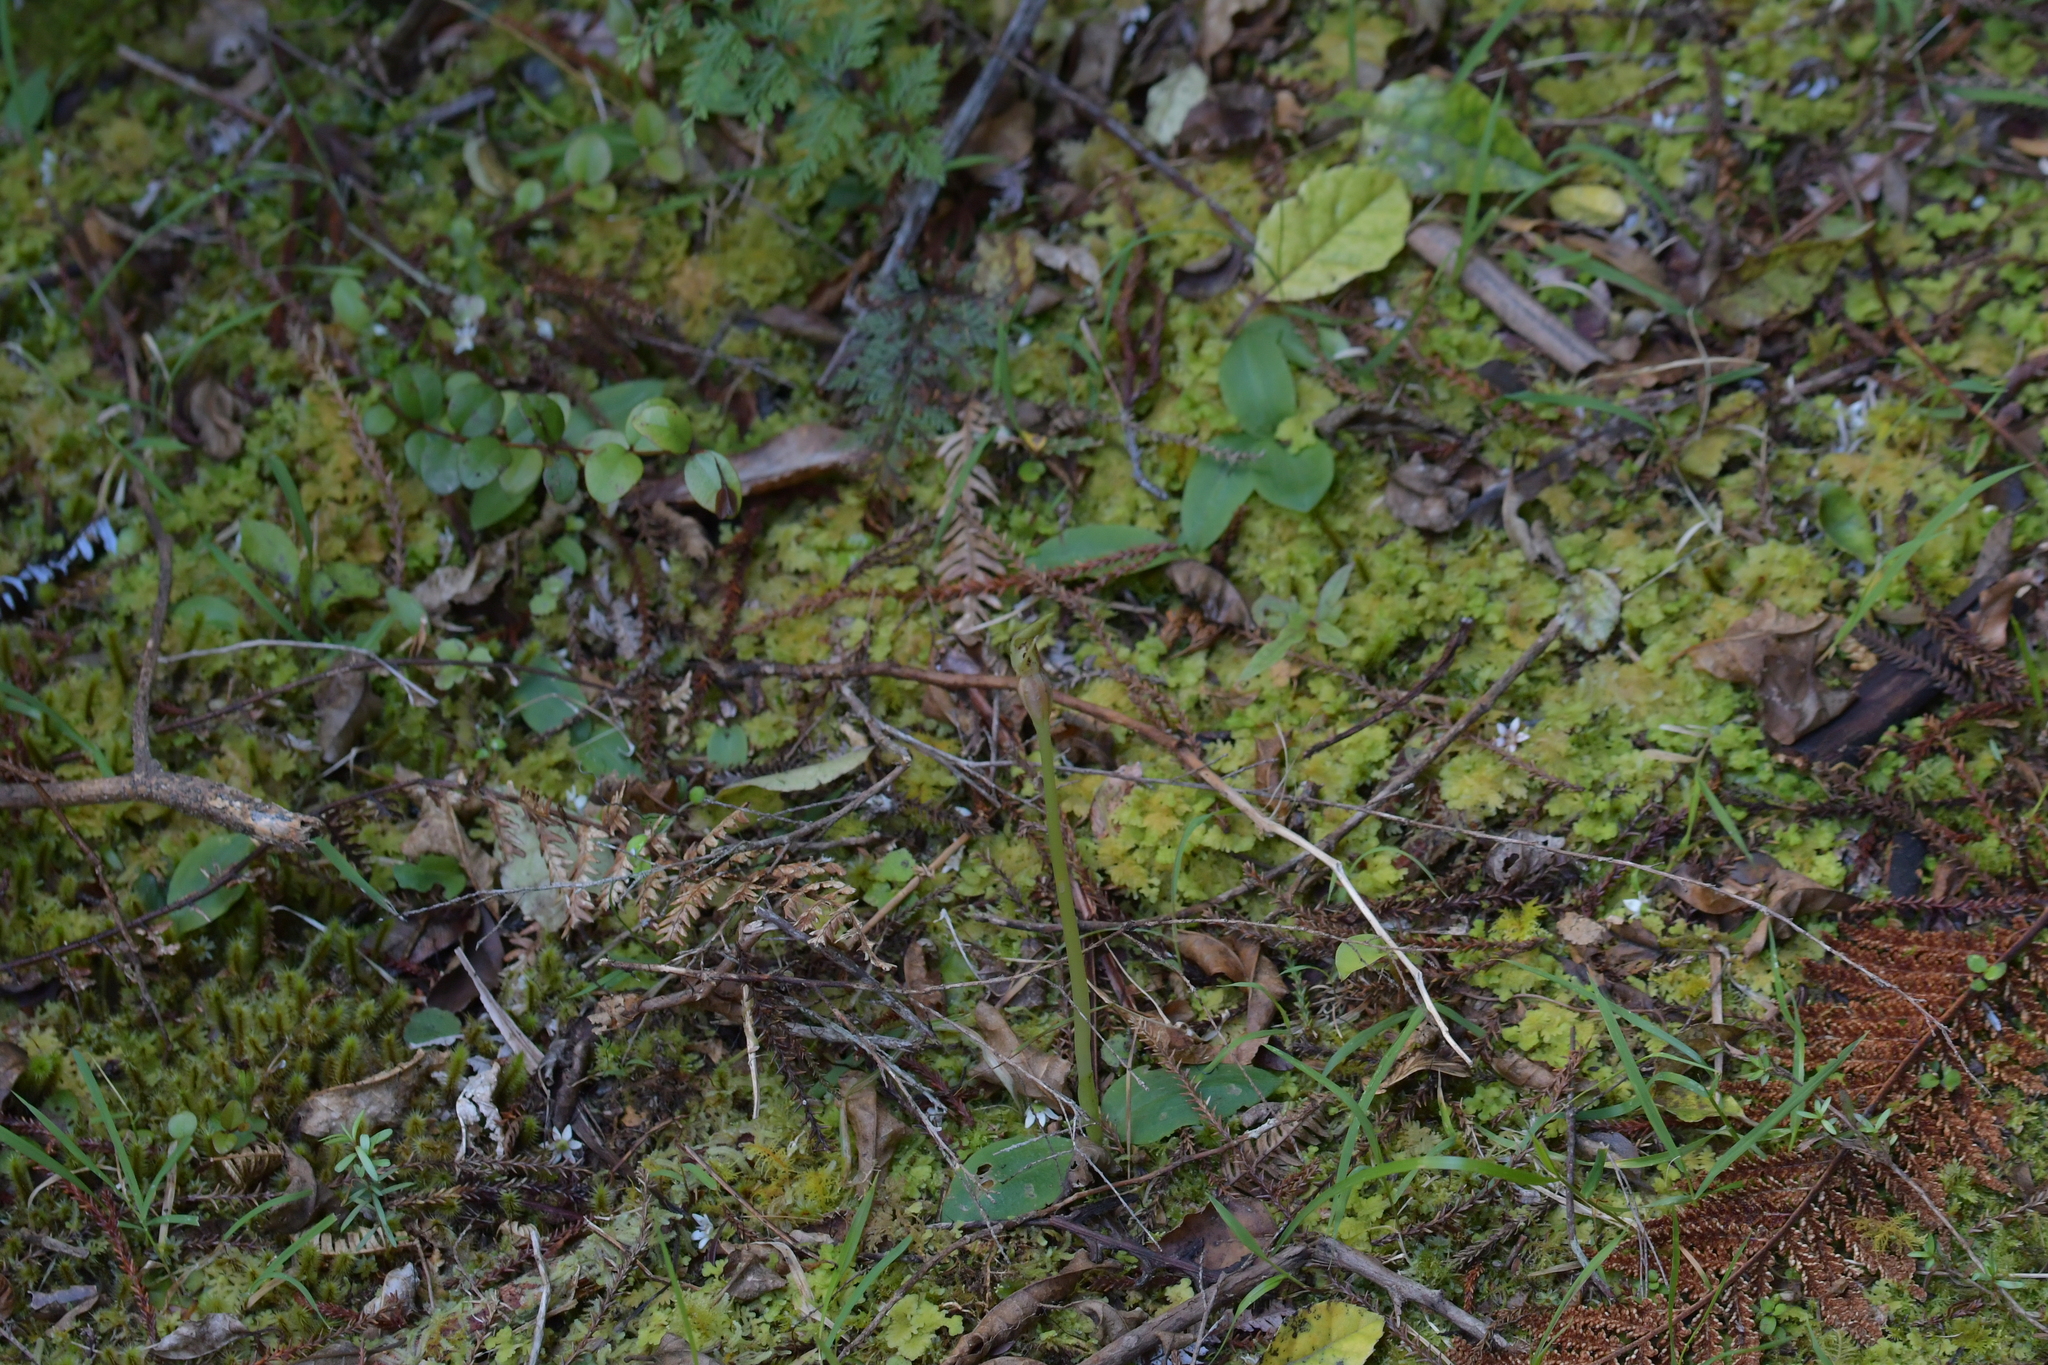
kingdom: Plantae
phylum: Tracheophyta
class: Liliopsida
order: Asparagales
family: Orchidaceae
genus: Chiloglottis
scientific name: Chiloglottis cornuta
